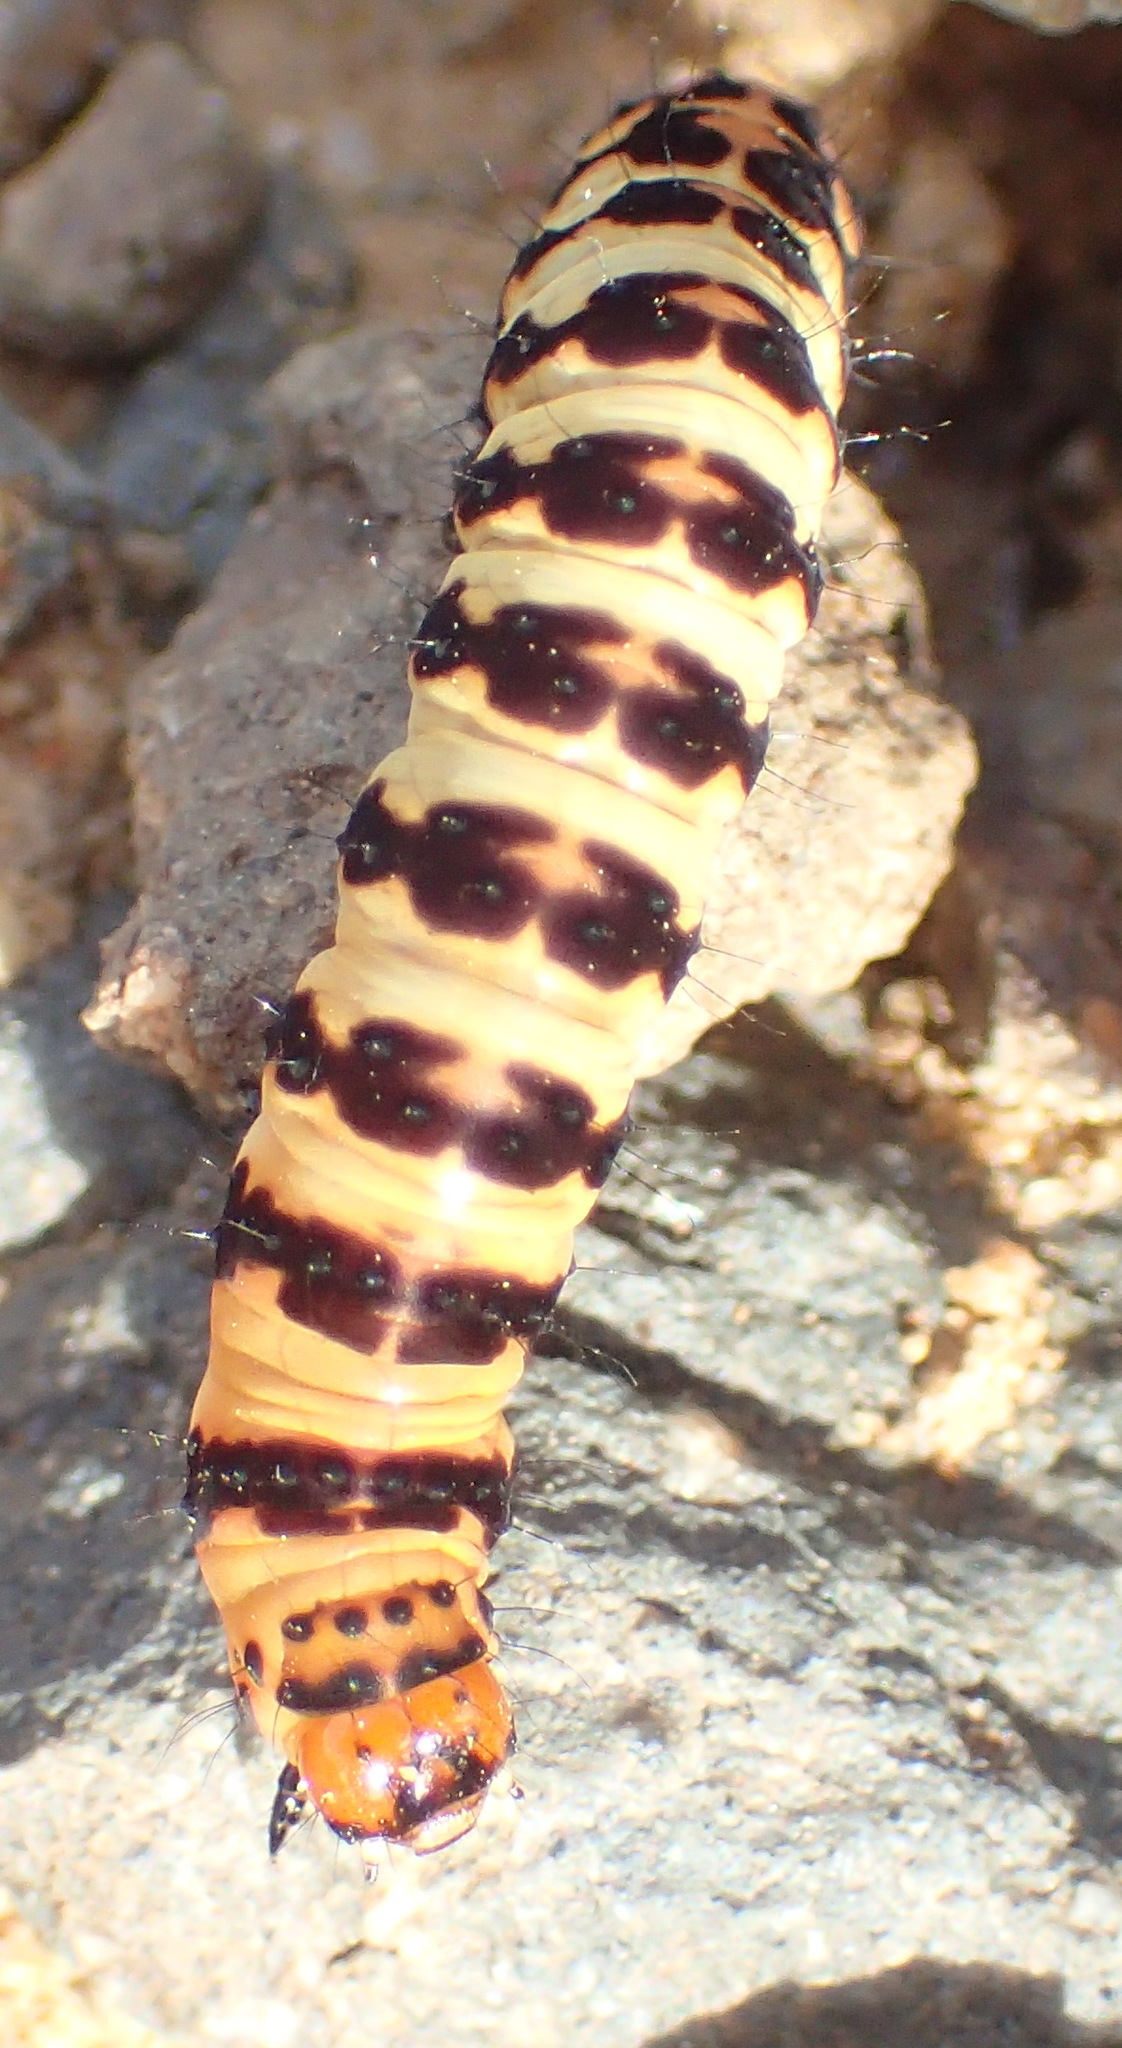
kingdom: Animalia
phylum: Arthropoda
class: Insecta
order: Lepidoptera
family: Noctuidae
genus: Diaphone
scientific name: Diaphone eumela
